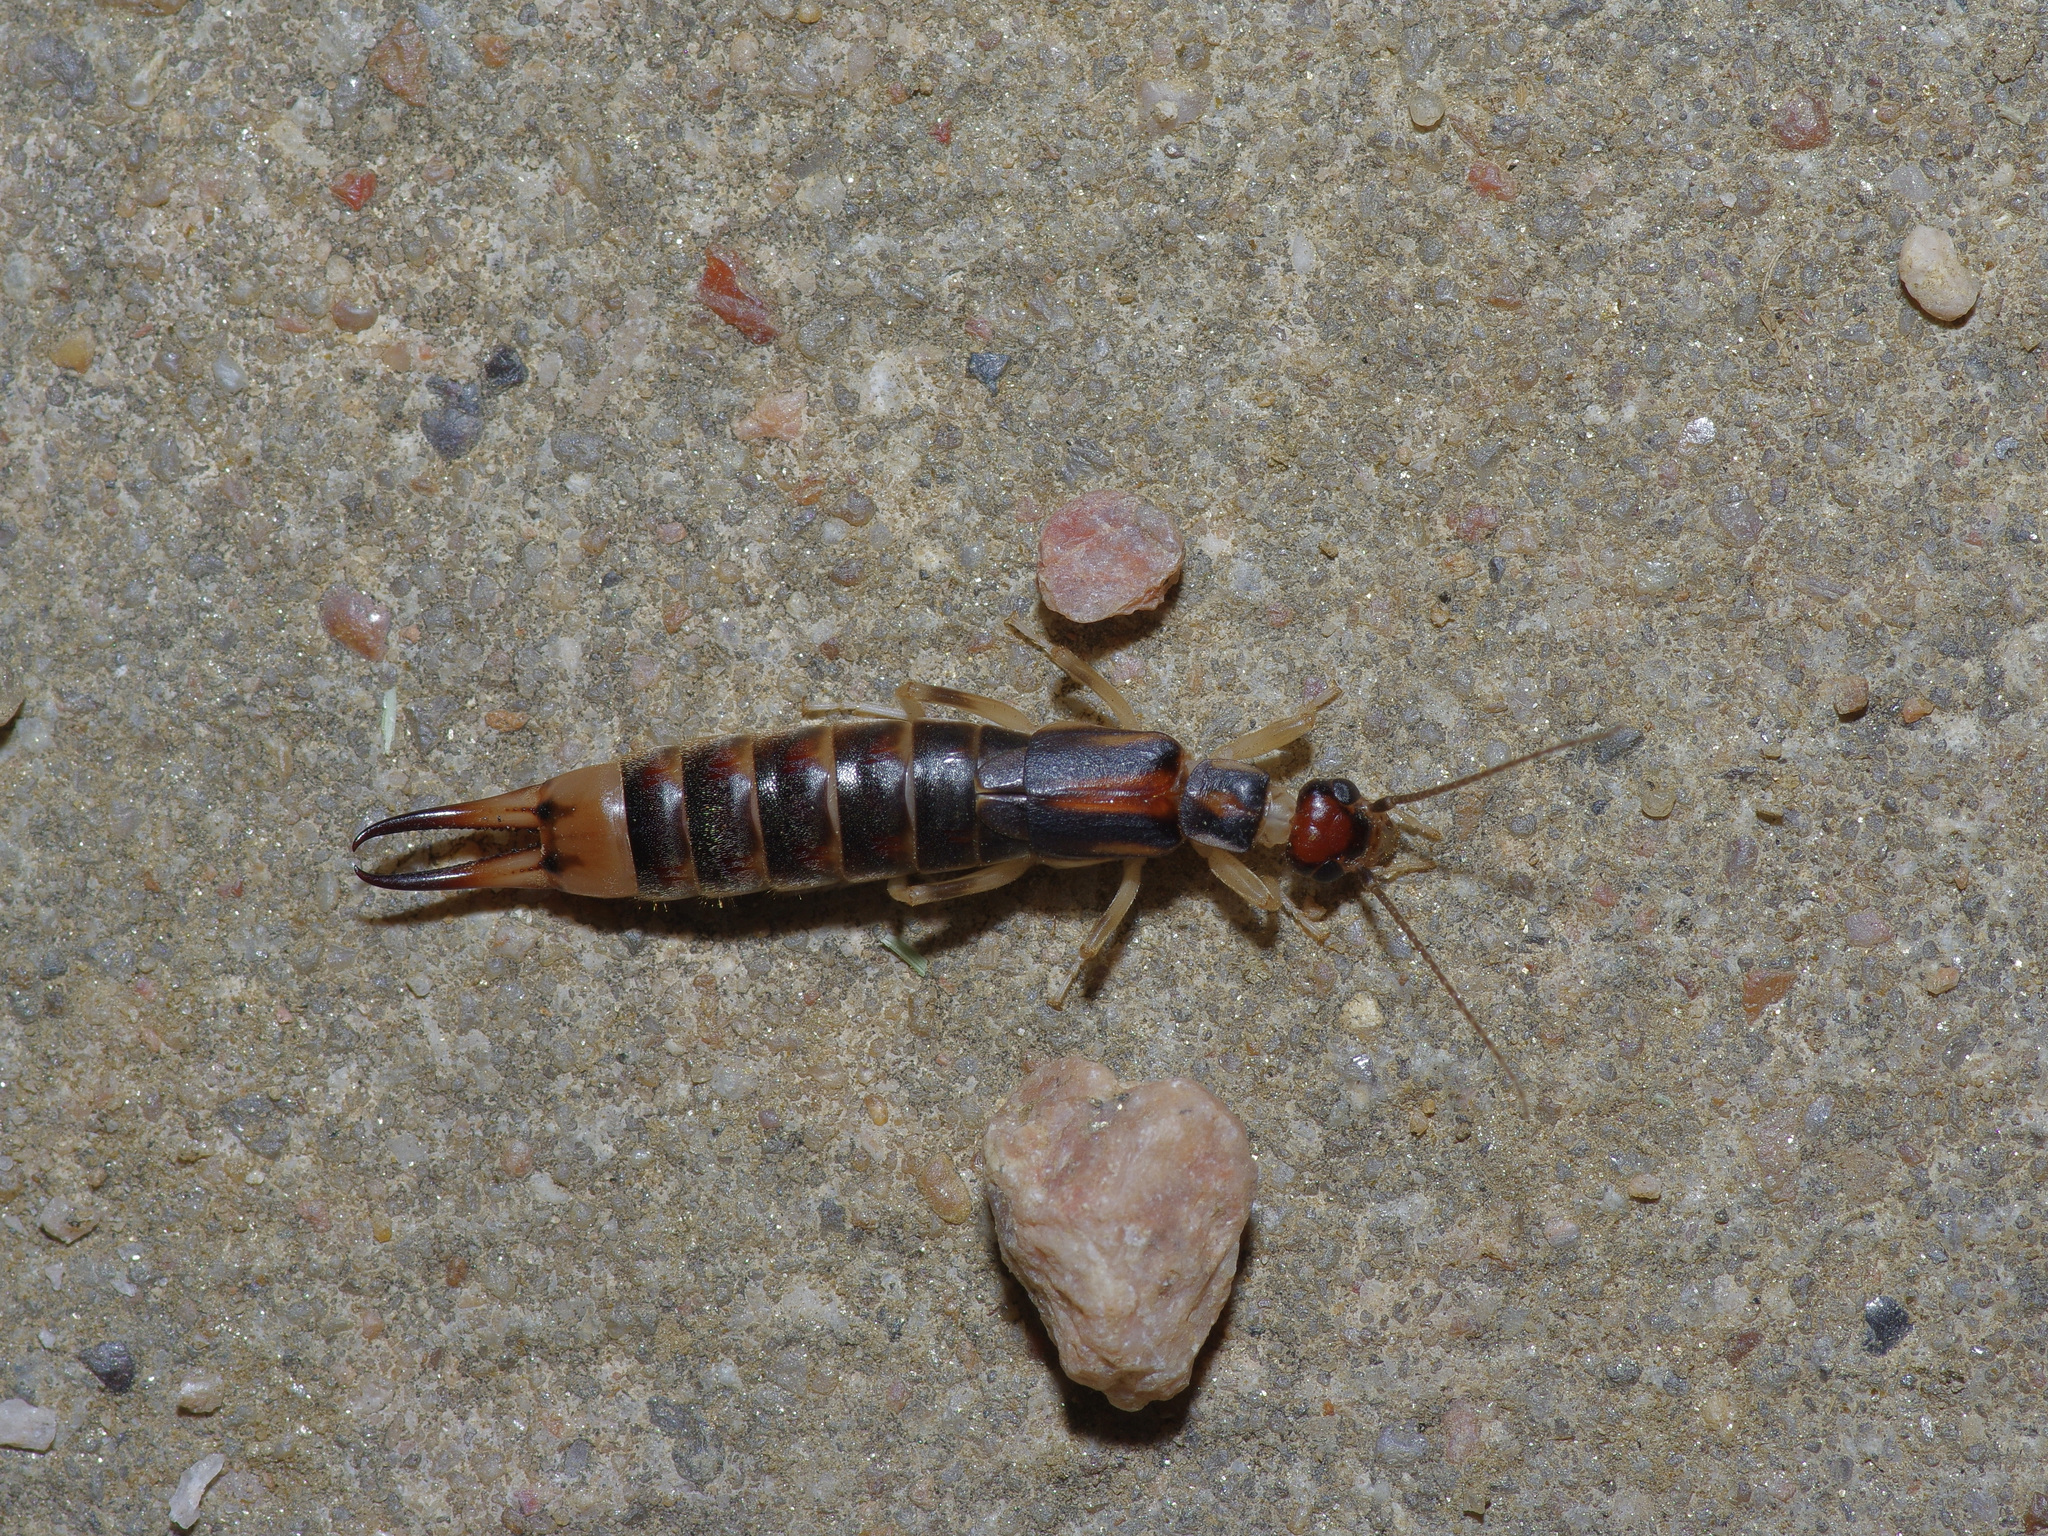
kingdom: Animalia
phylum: Arthropoda
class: Insecta
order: Dermaptera
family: Labiduridae
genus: Labidura
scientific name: Labidura riparia
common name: Striped earwig
